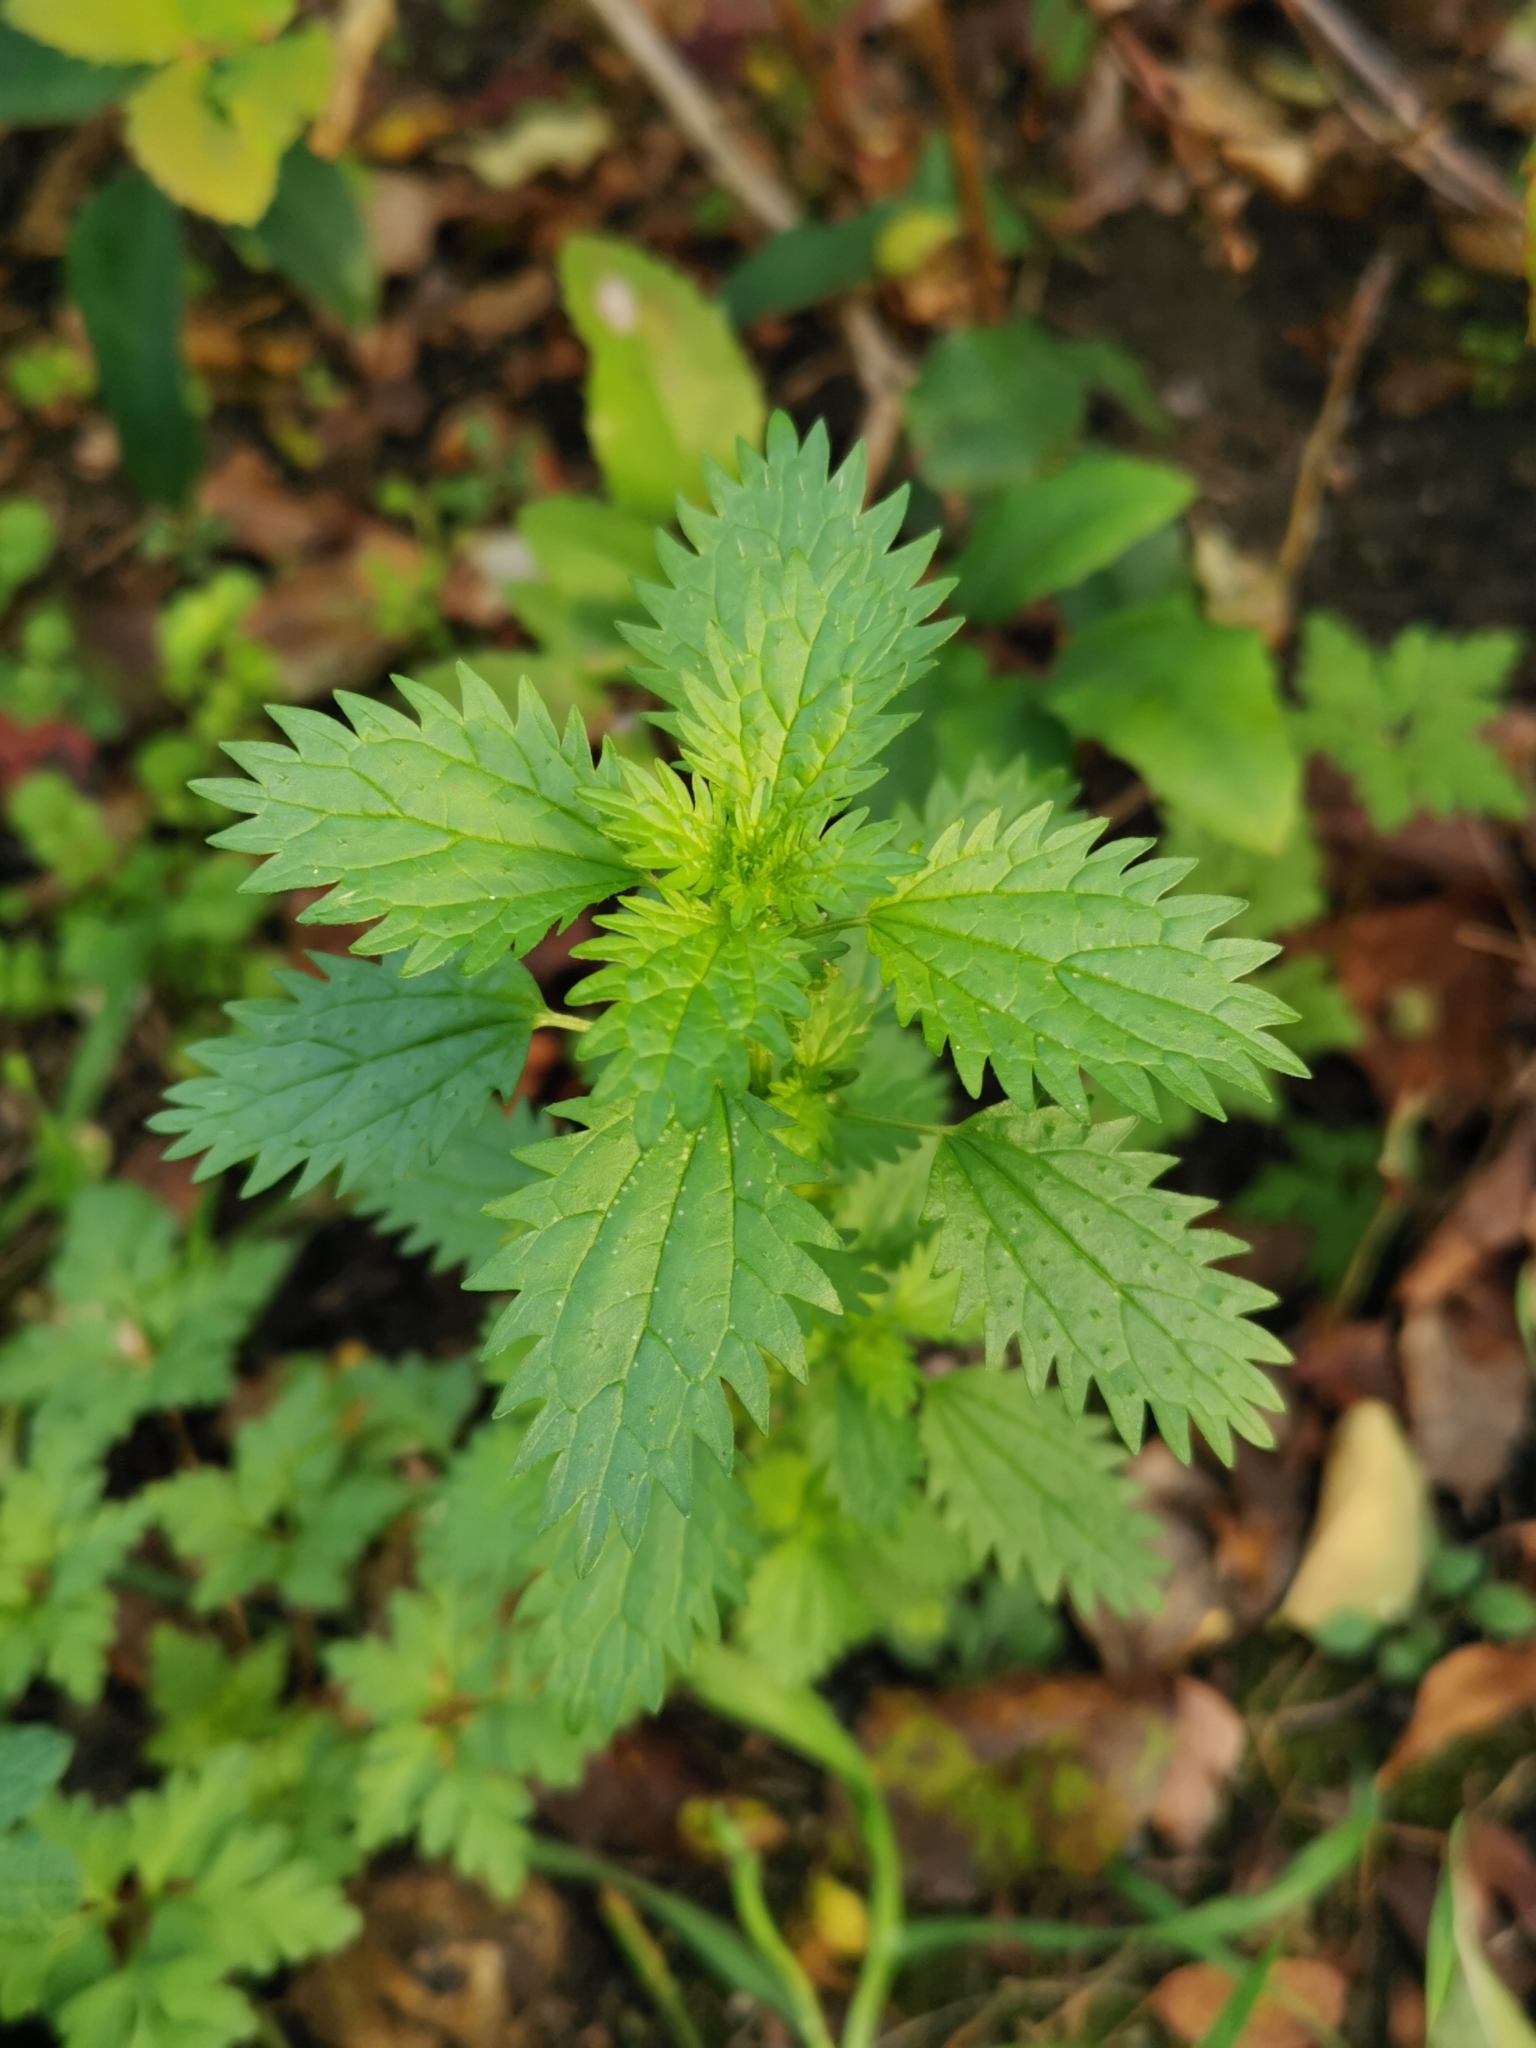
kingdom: Plantae
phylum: Tracheophyta
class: Magnoliopsida
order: Rosales
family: Urticaceae
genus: Urtica
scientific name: Urtica urens
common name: Dwarf nettle
